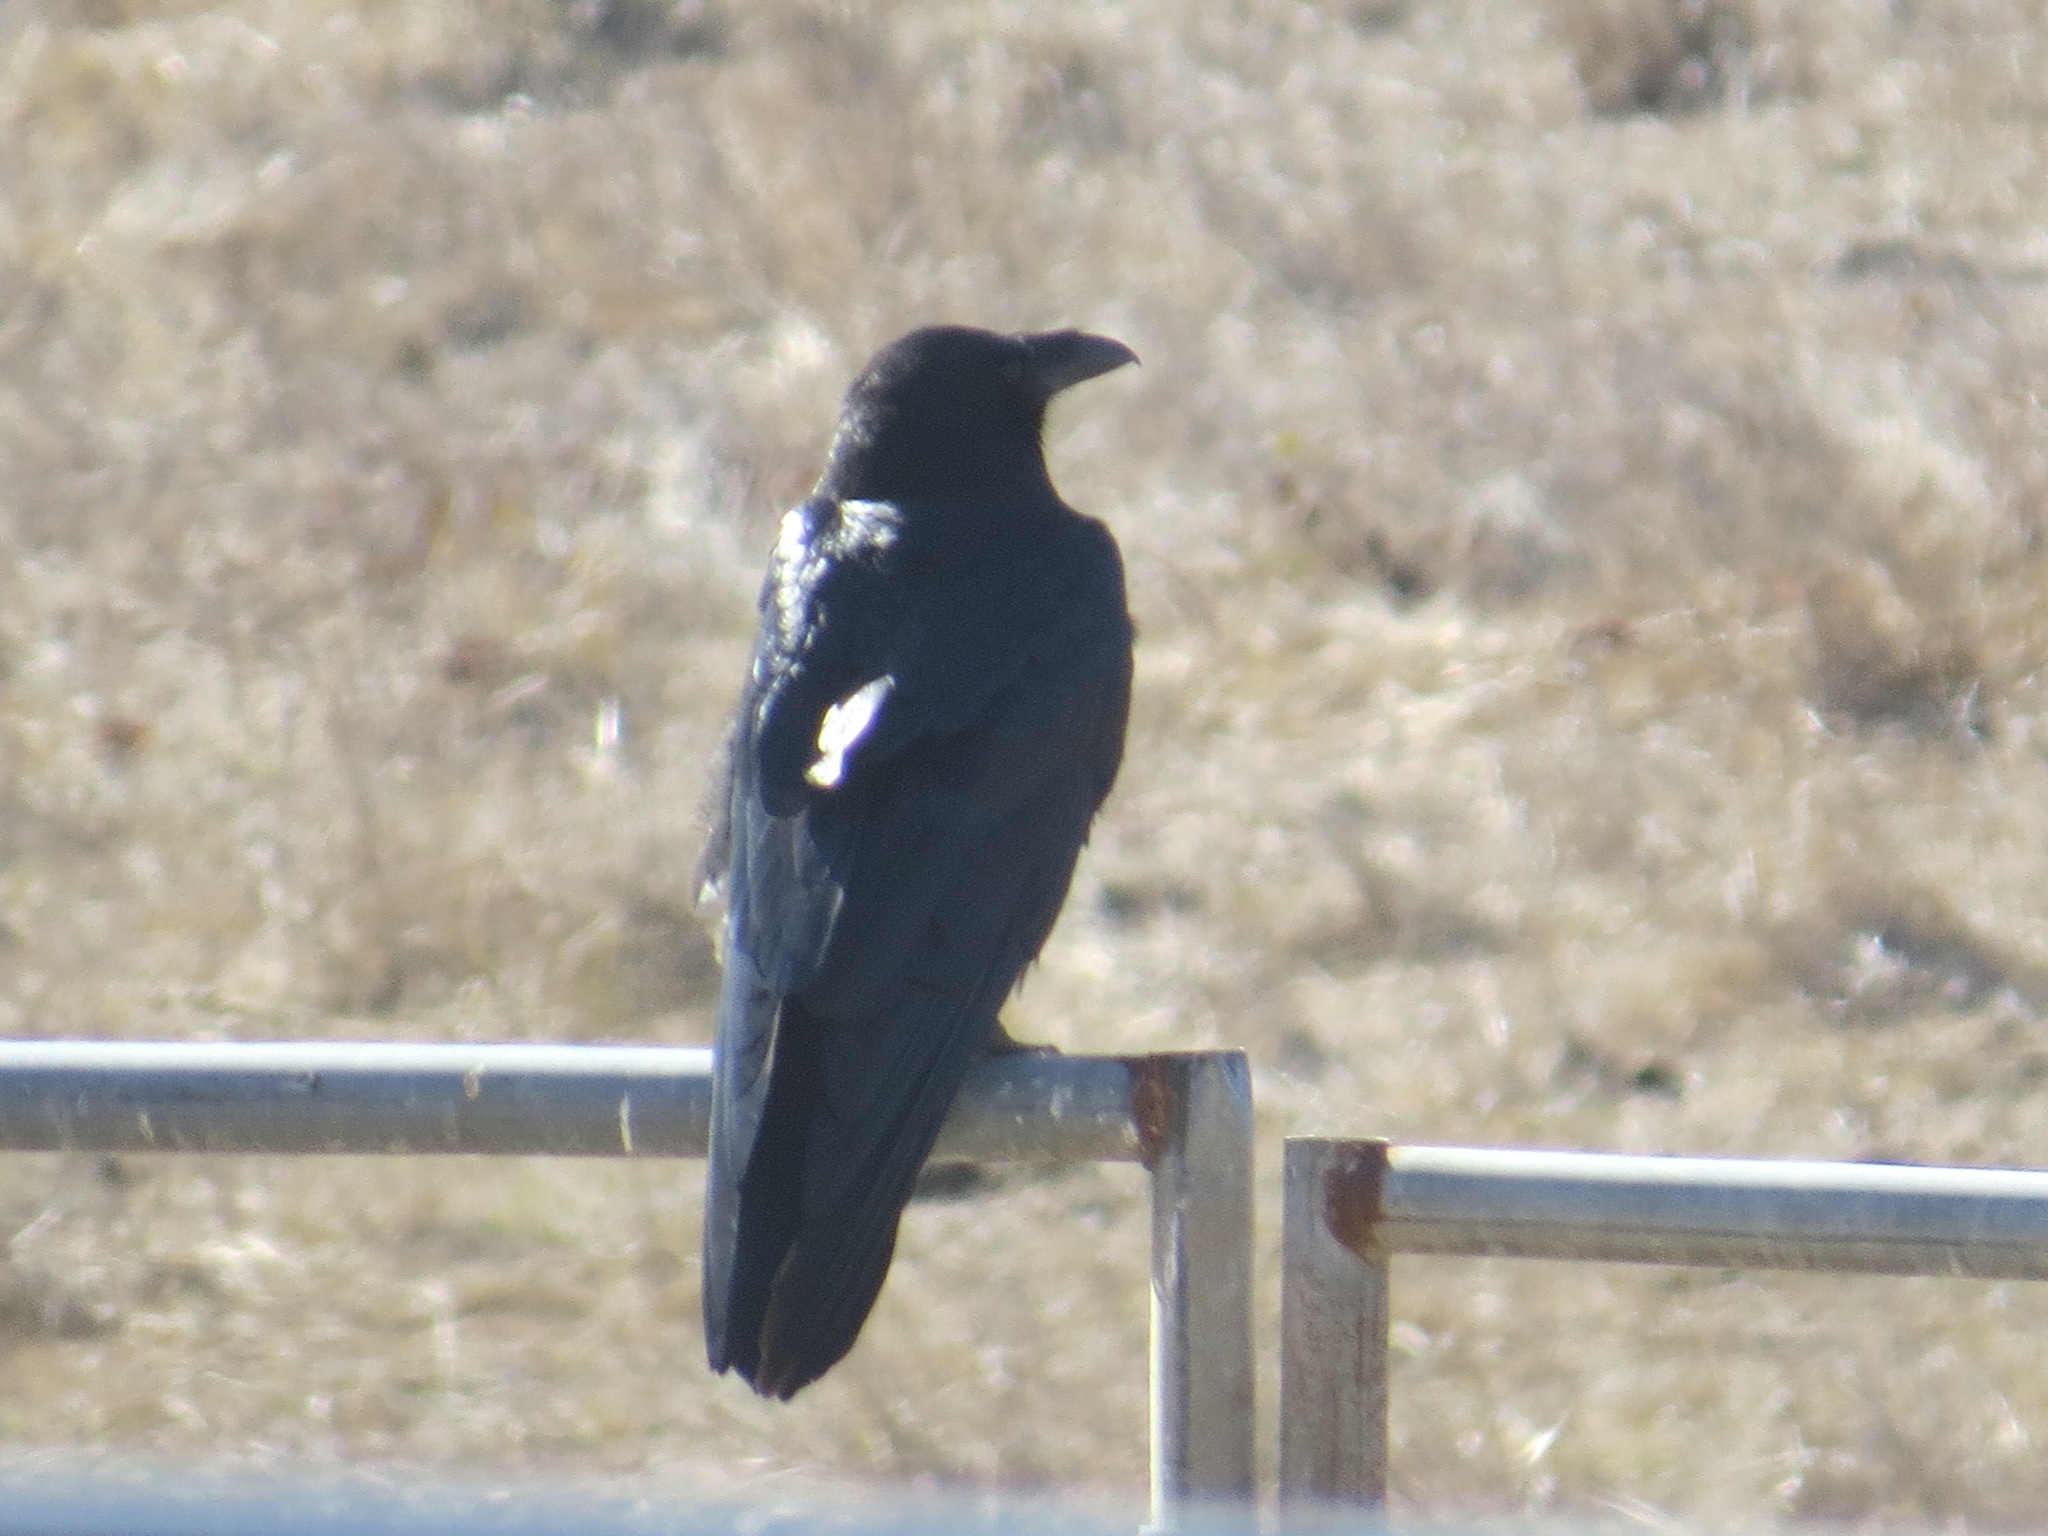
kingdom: Animalia
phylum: Chordata
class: Aves
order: Passeriformes
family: Corvidae
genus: Corvus
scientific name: Corvus corax
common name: Common raven
